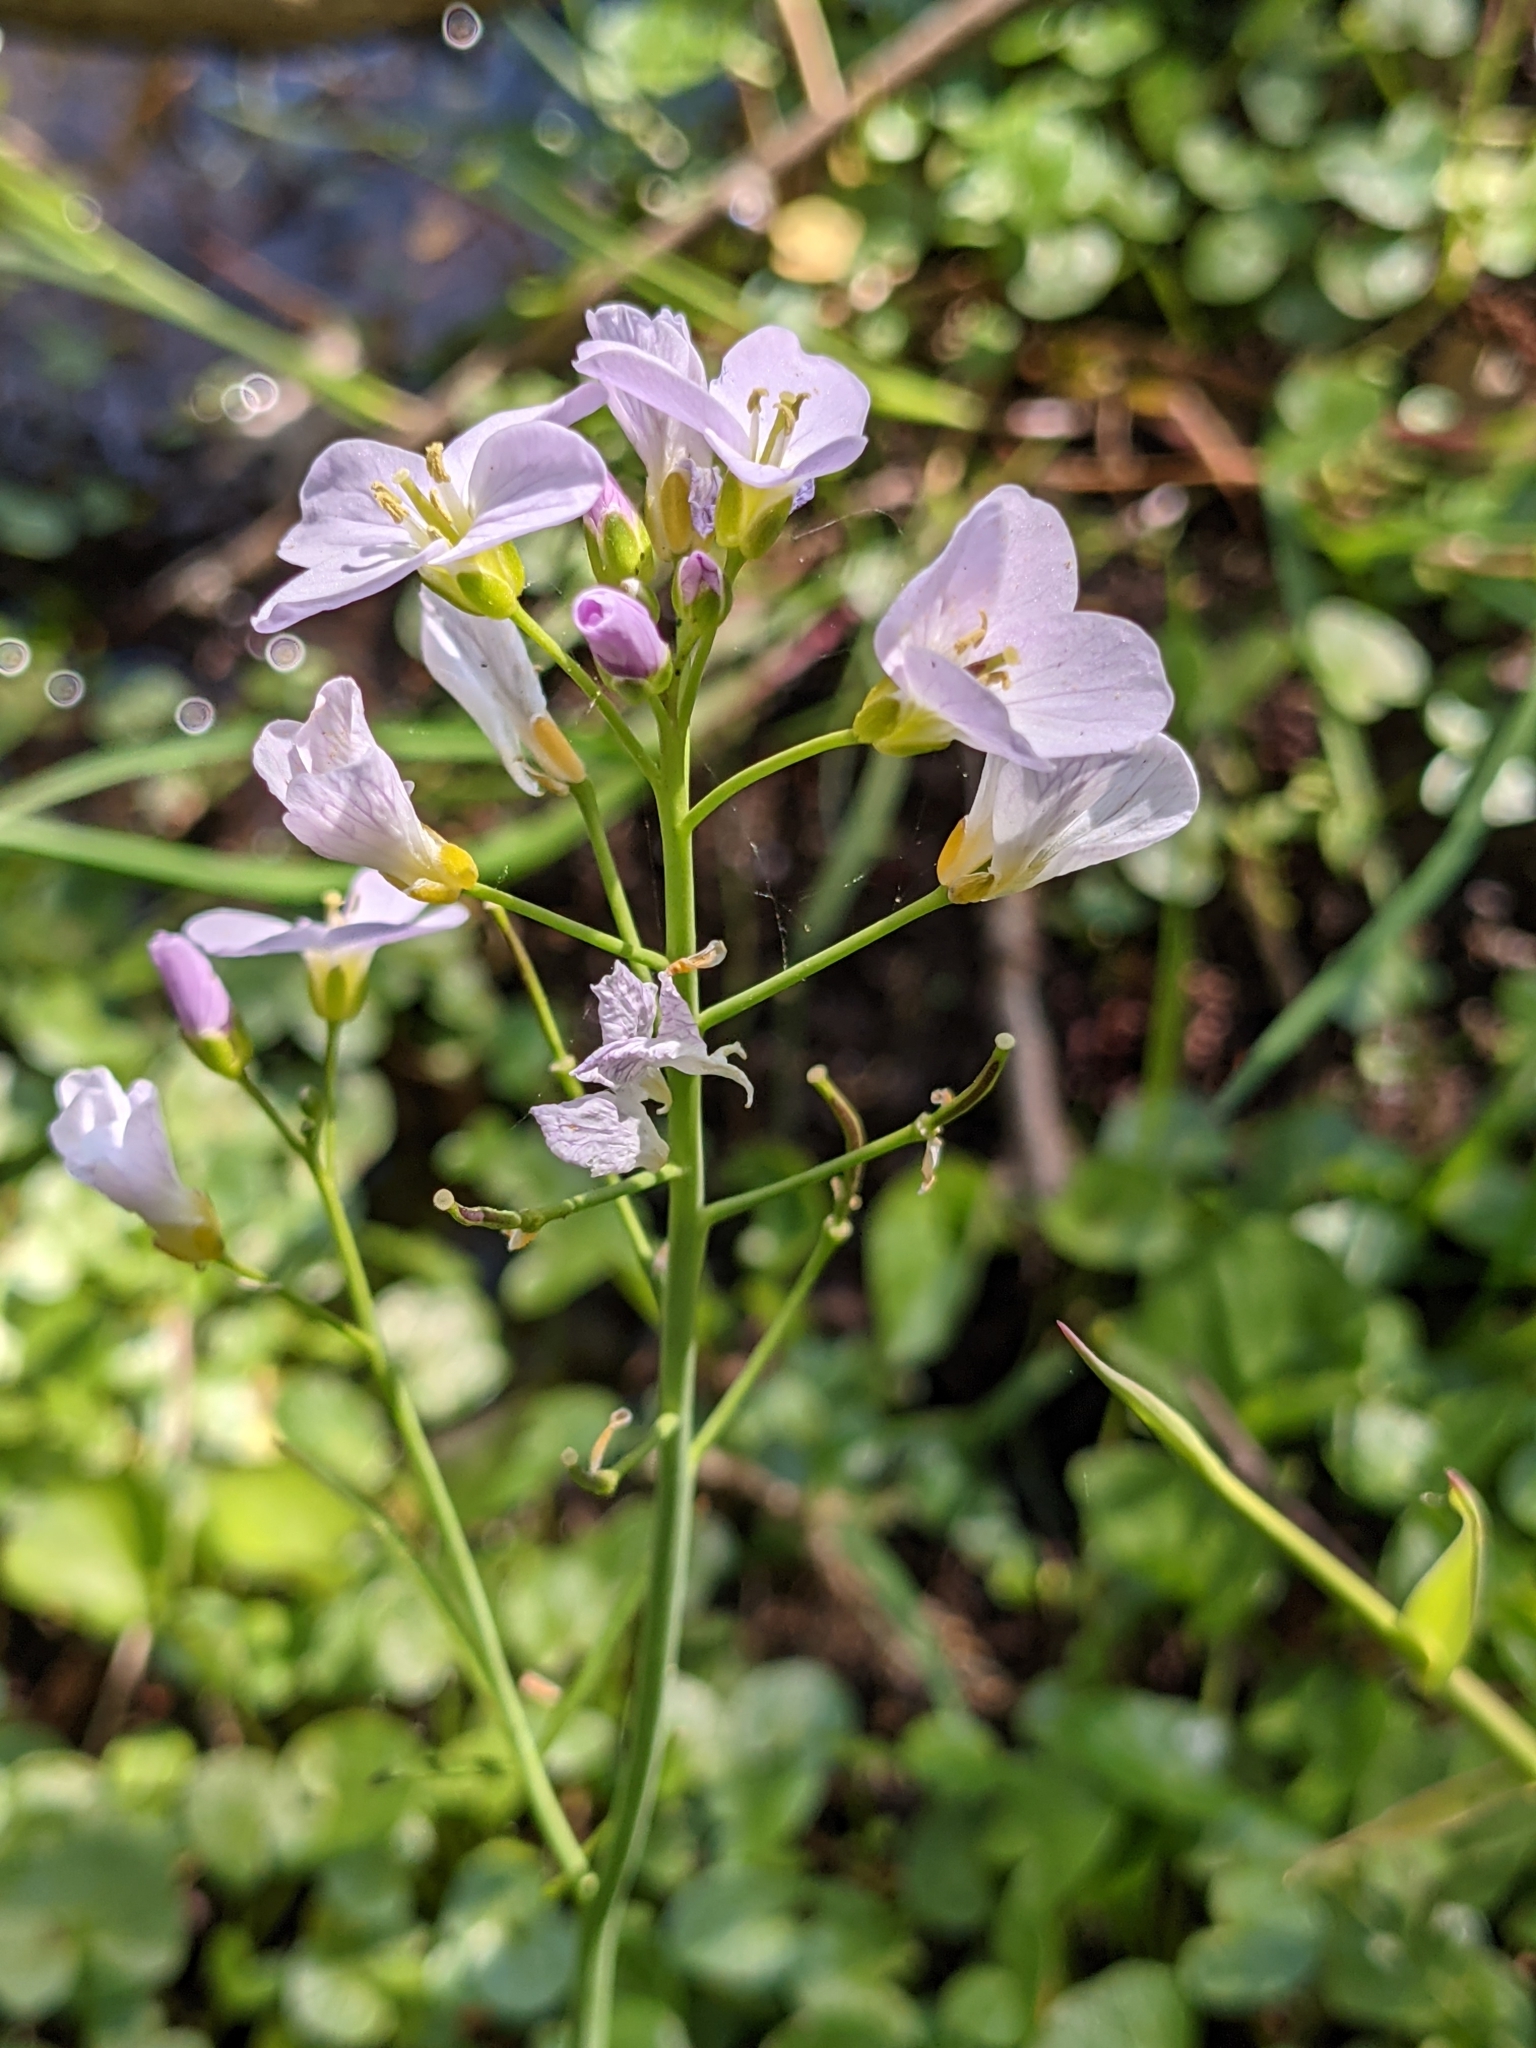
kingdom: Plantae
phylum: Tracheophyta
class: Magnoliopsida
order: Brassicales
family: Brassicaceae
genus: Cardamine
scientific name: Cardamine pratensis
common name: Cuckoo flower
